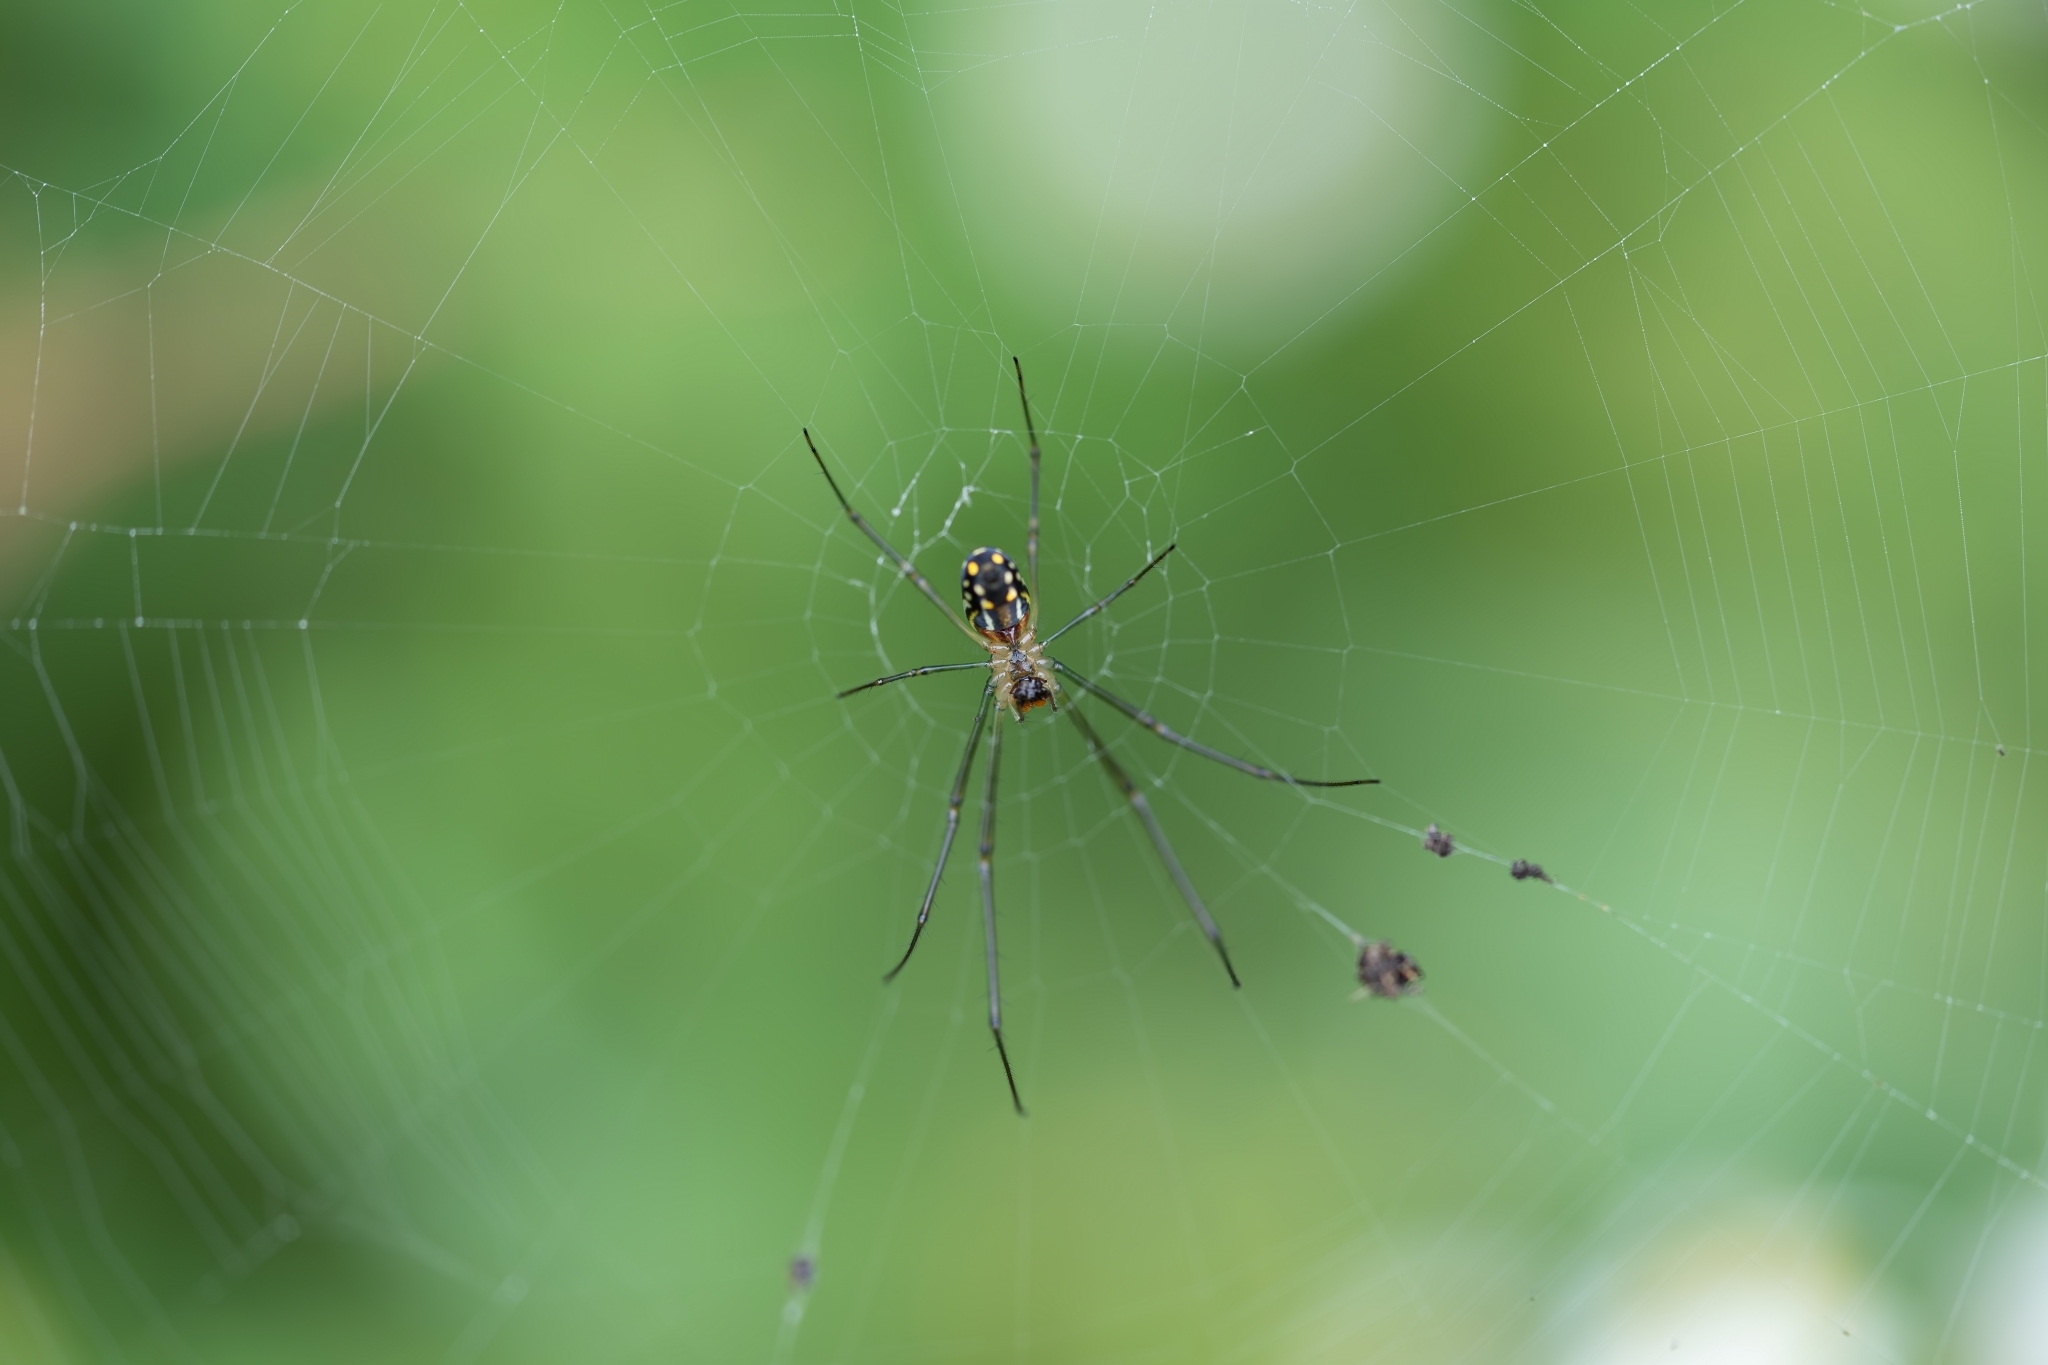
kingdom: Animalia
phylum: Arthropoda
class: Arachnida
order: Araneae
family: Tetragnathidae
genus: Leucauge
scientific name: Leucauge argyra
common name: Longjawed orb weavers
